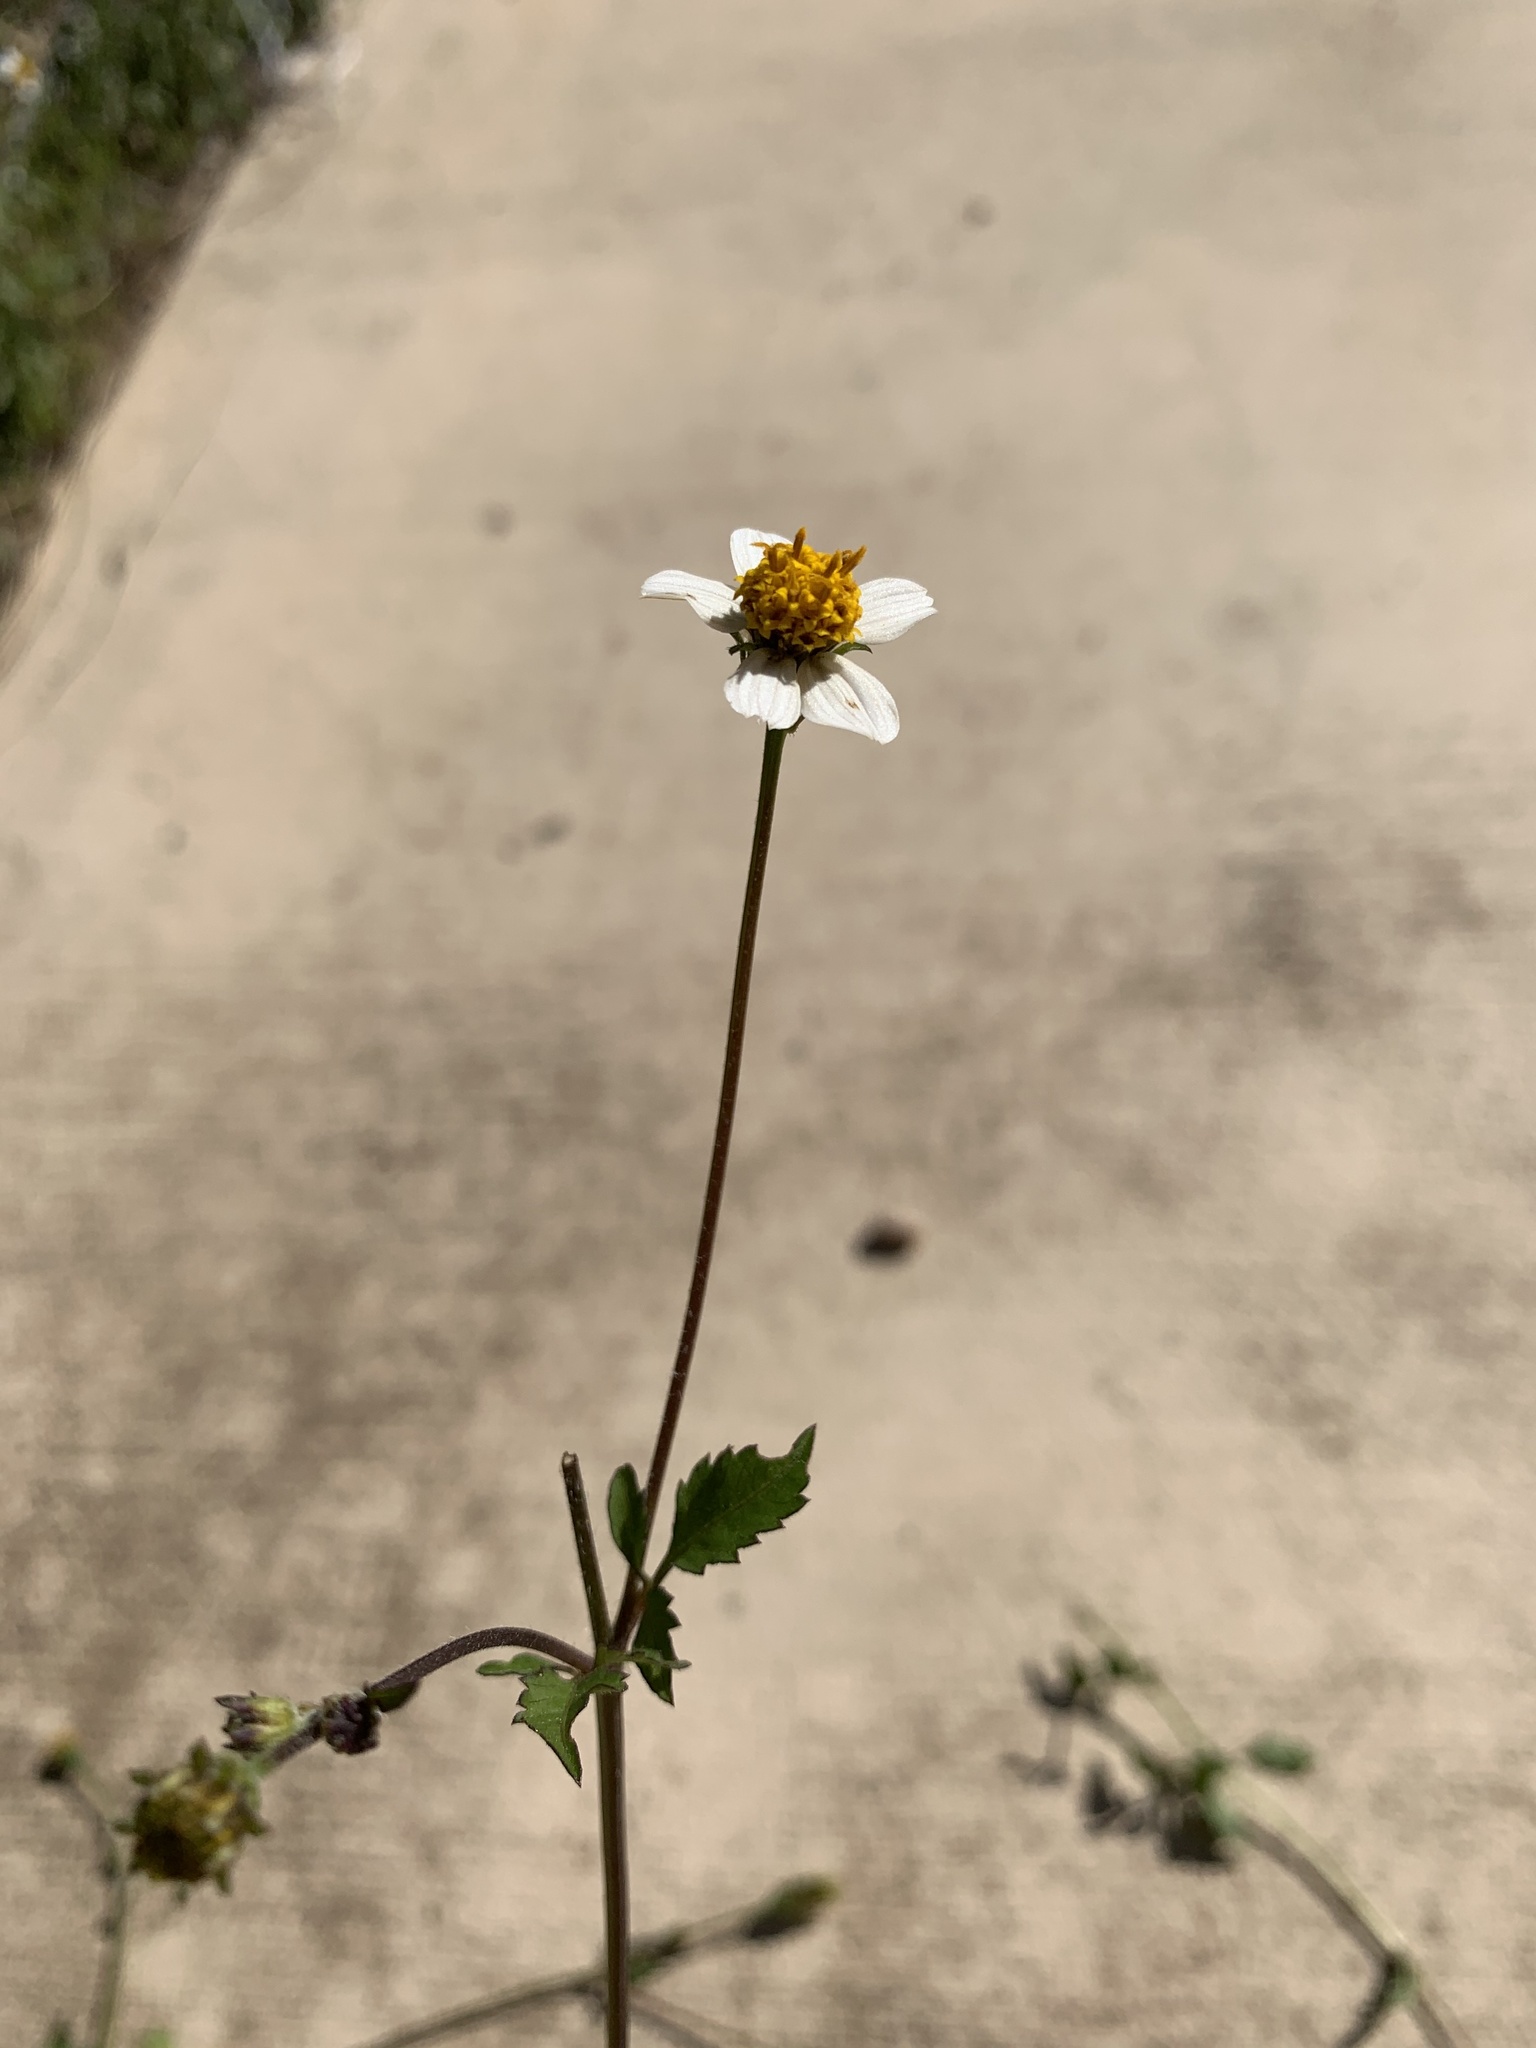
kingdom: Plantae
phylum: Tracheophyta
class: Magnoliopsida
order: Asterales
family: Asteraceae
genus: Bidens
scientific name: Bidens pilosa
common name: Black-jack
